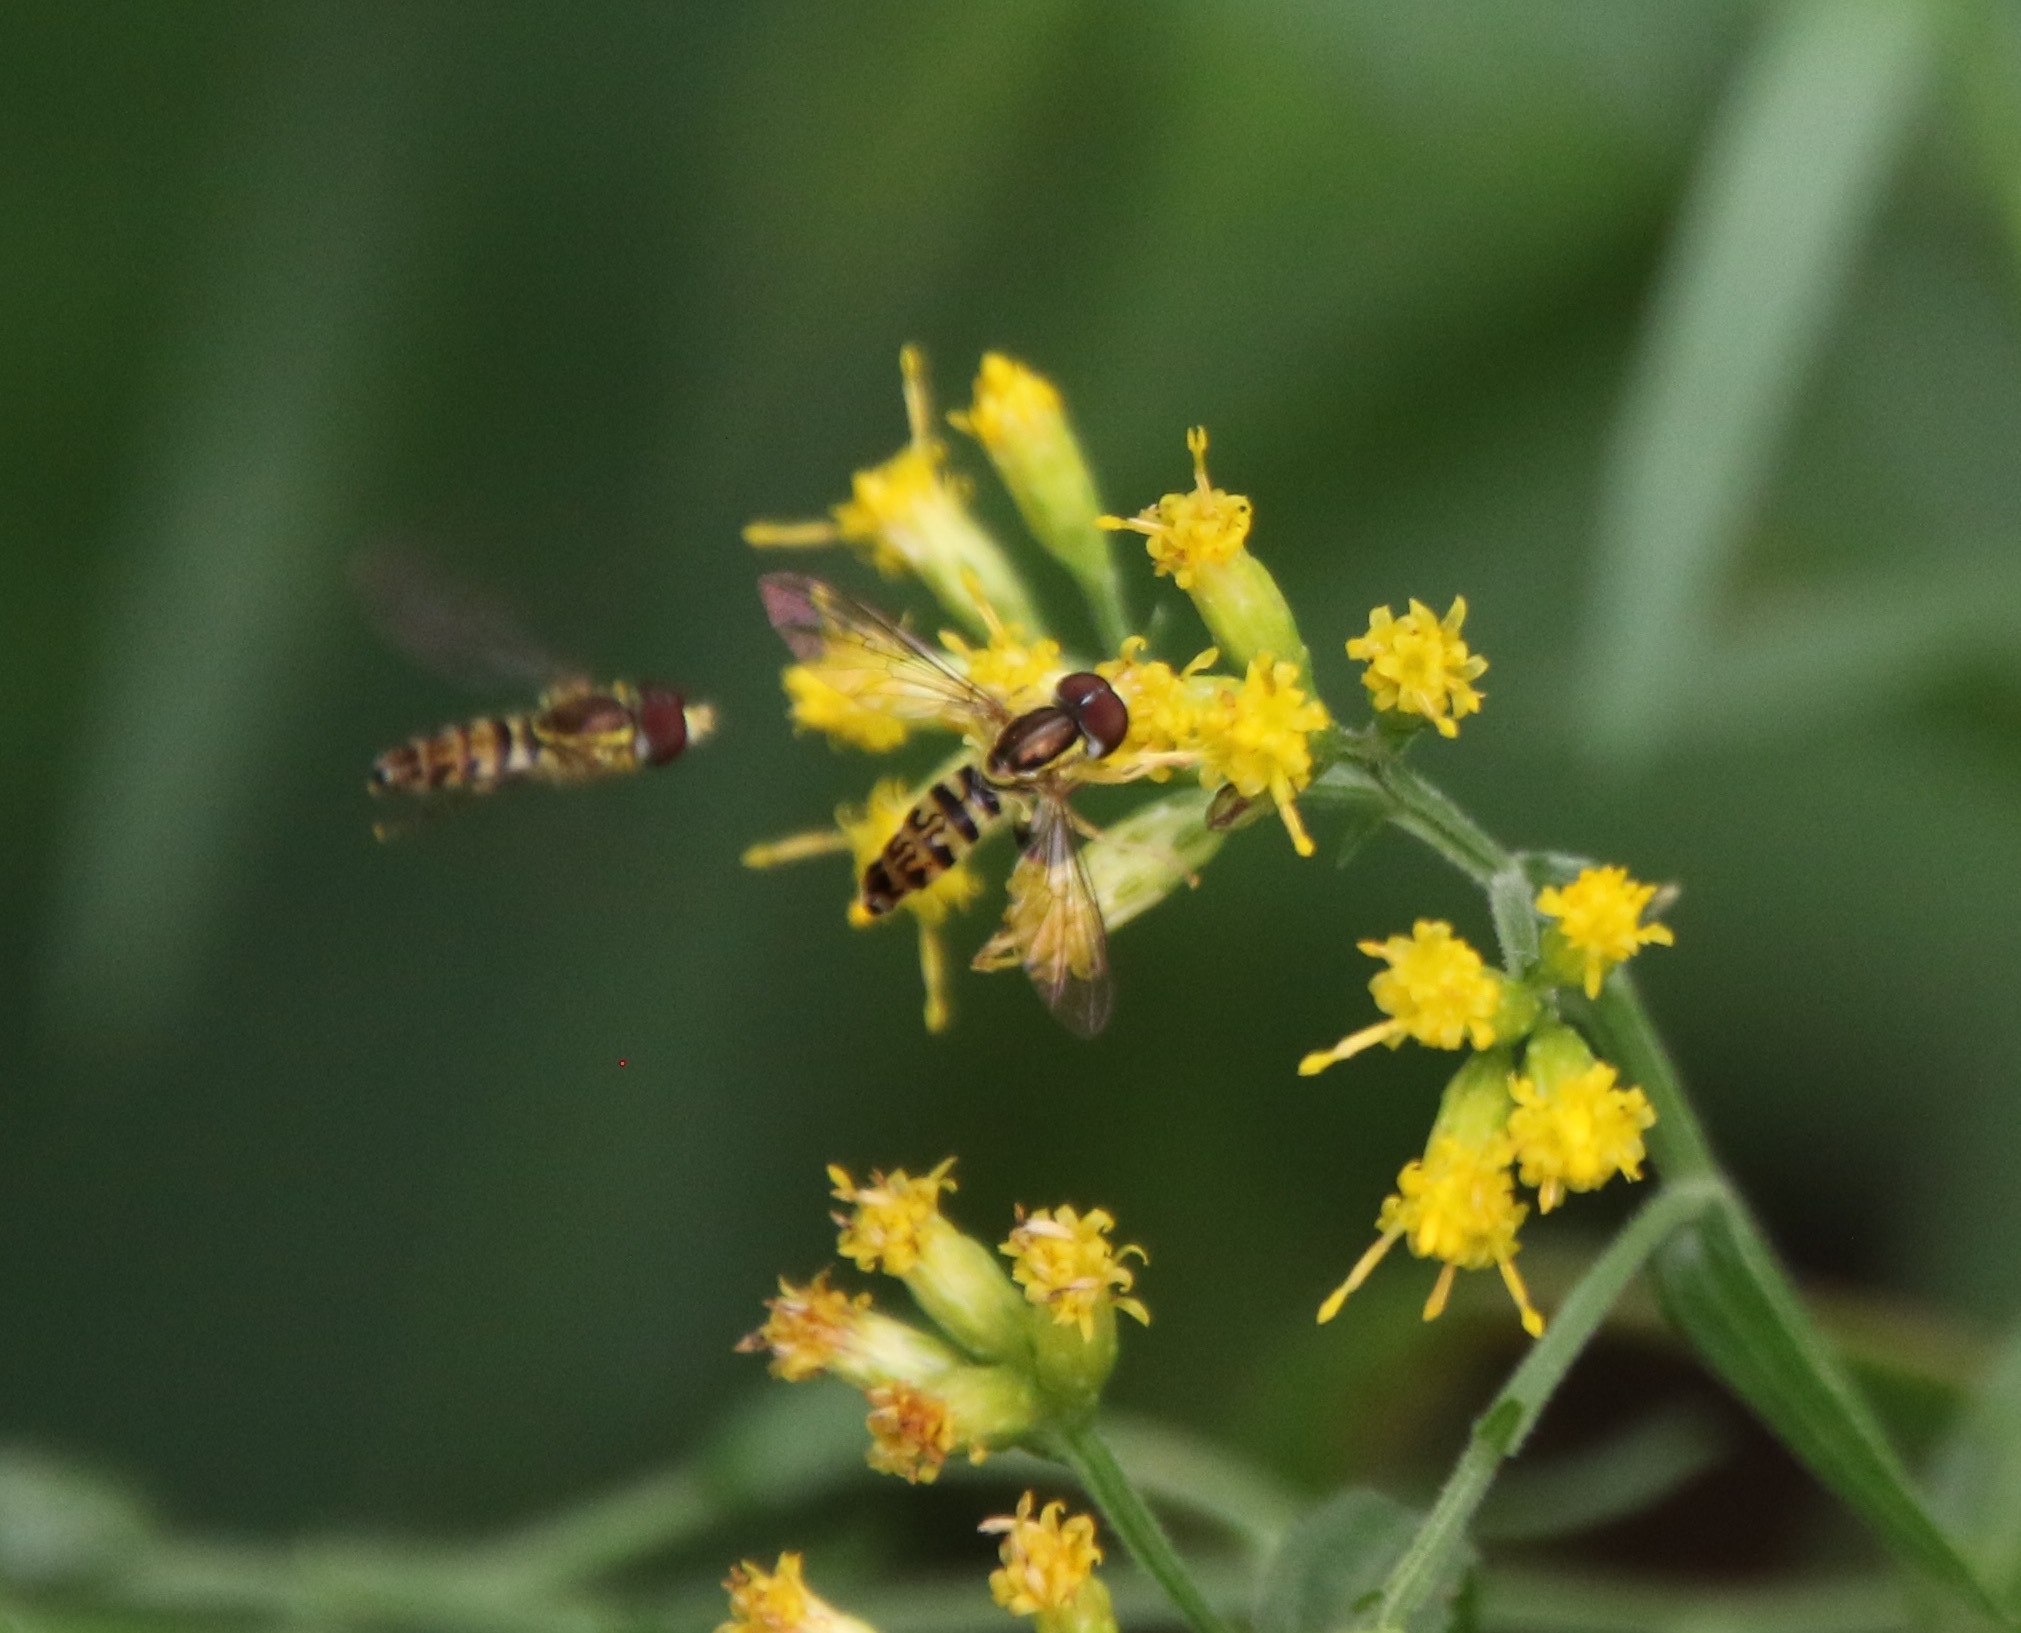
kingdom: Animalia
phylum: Arthropoda
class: Insecta
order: Diptera
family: Syrphidae
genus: Toxomerus
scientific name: Toxomerus geminatus
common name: Eastern calligrapher
